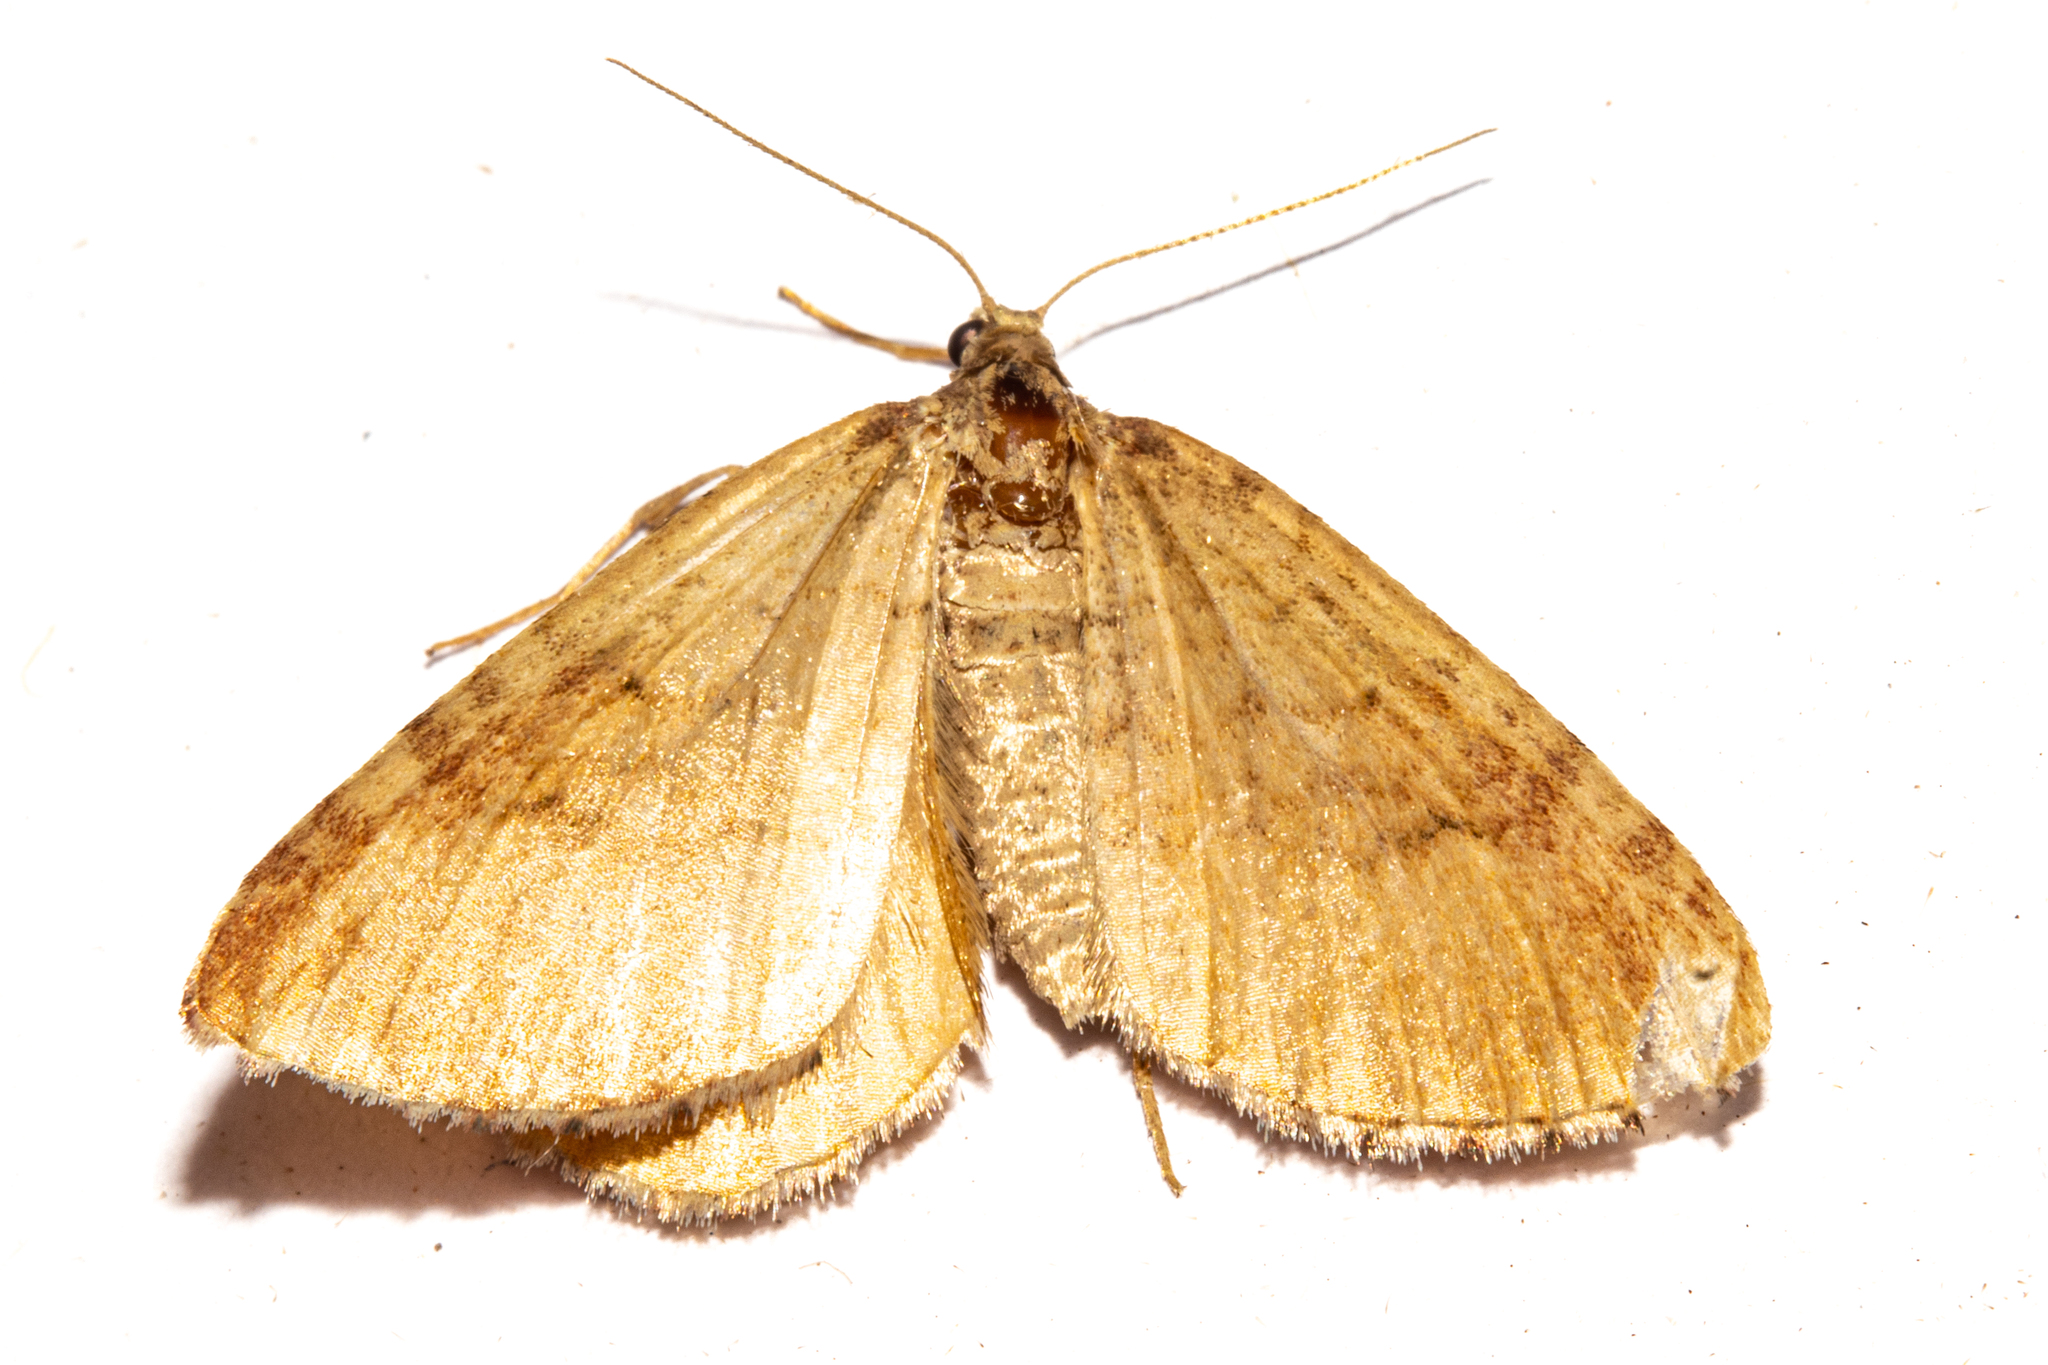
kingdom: Animalia
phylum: Arthropoda
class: Insecta
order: Lepidoptera
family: Geometridae
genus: Asaphodes
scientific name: Asaphodes aegrota
